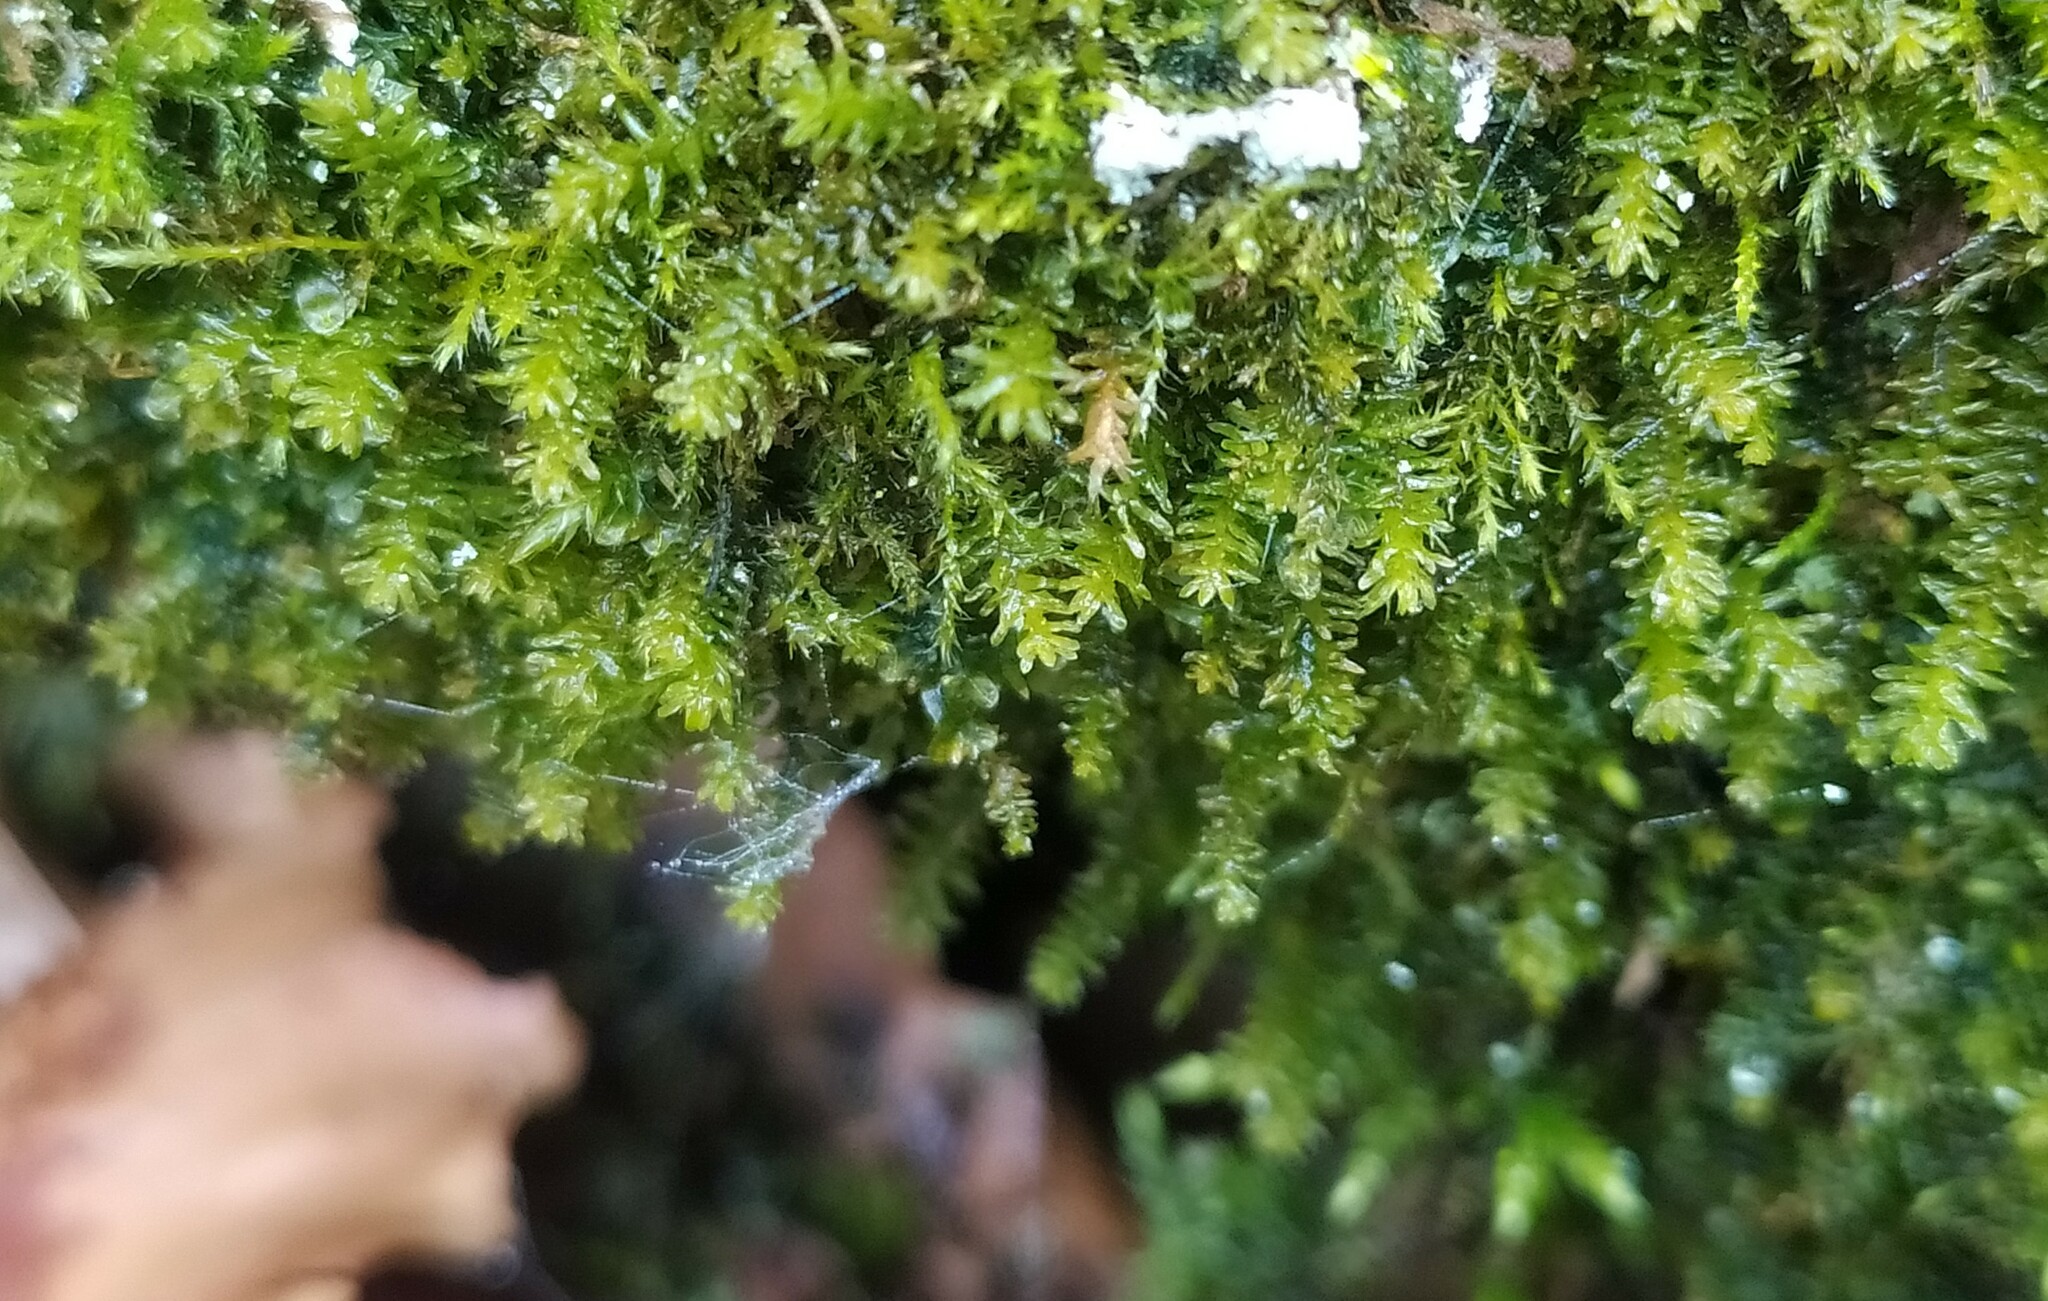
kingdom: Plantae
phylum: Bryophyta
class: Bryopsida
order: Hypnales
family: Anomodontaceae
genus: Anomodontopsis
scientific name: Anomodontopsis rugelii
